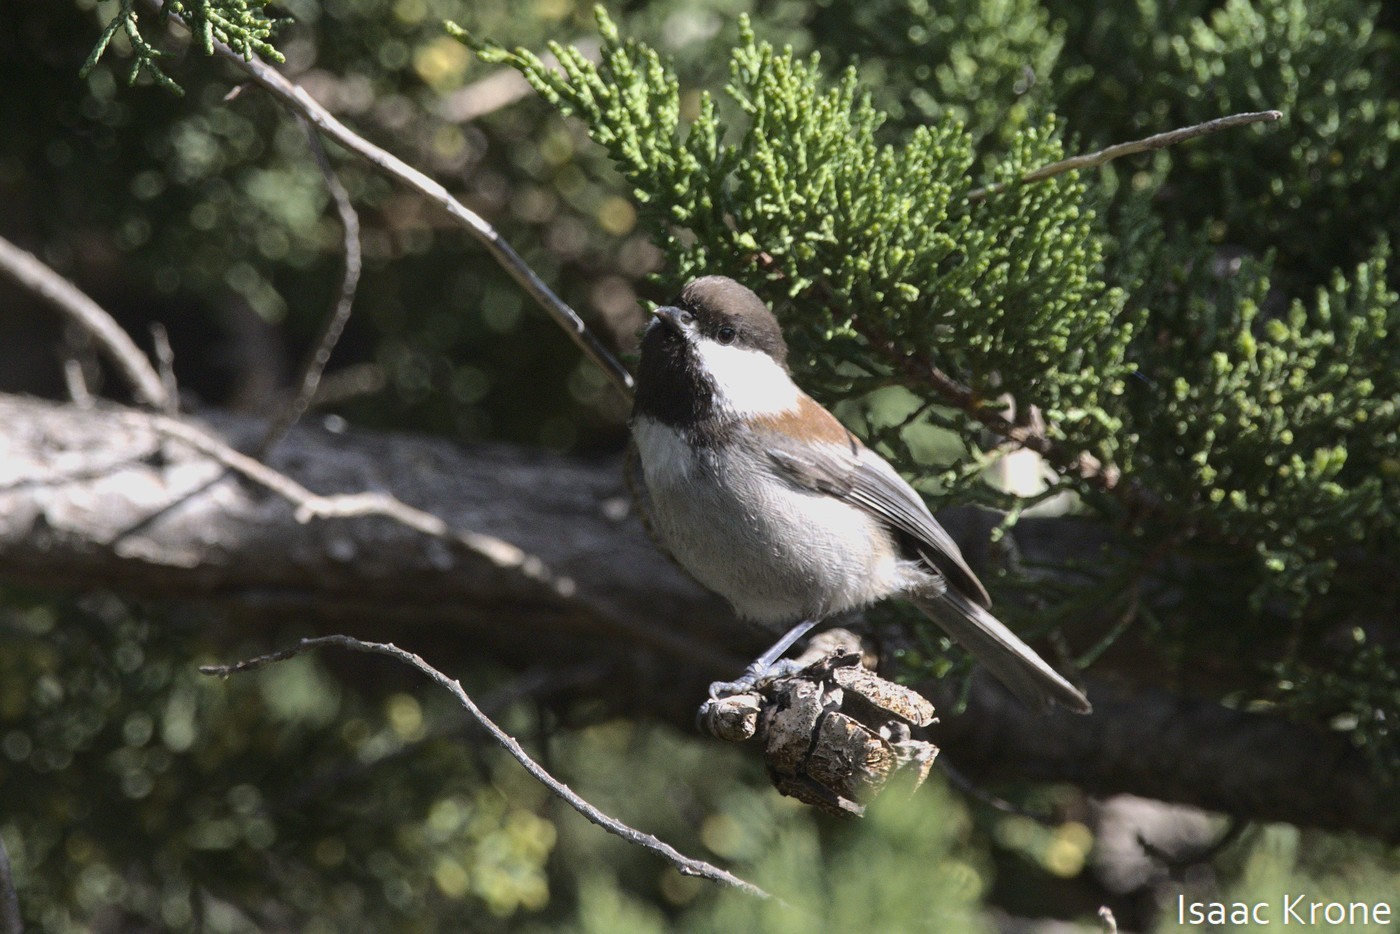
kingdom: Animalia
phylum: Chordata
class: Aves
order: Passeriformes
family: Paridae
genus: Poecile
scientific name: Poecile rufescens
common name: Chestnut-backed chickadee
